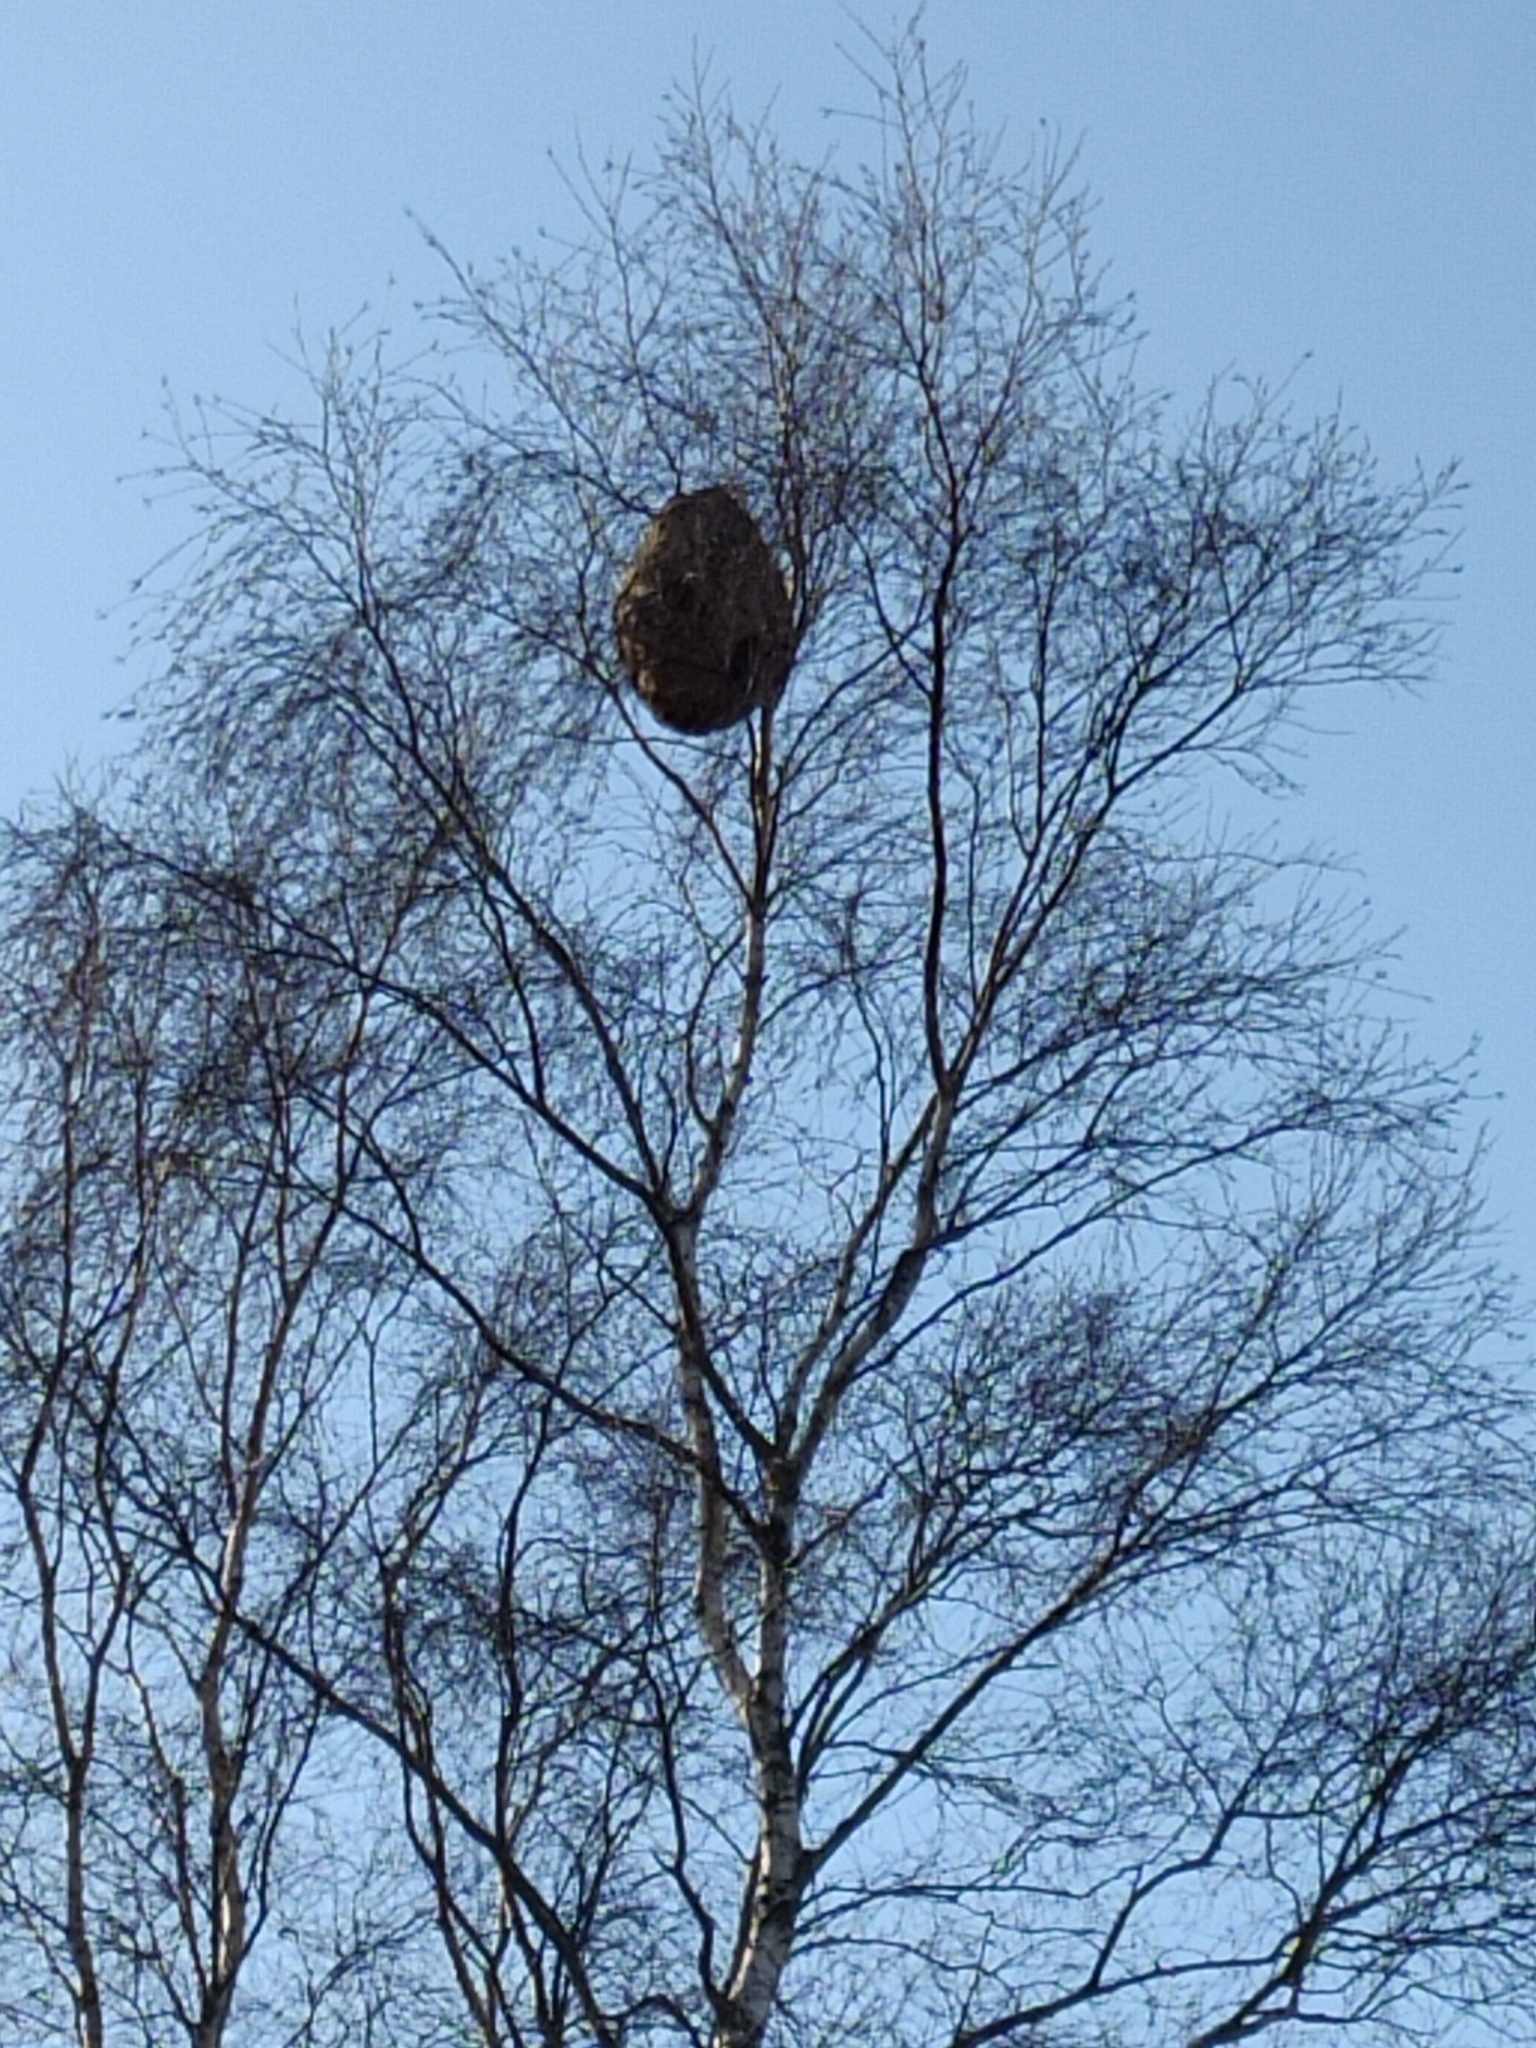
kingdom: Animalia
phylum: Arthropoda
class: Insecta
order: Hymenoptera
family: Vespidae
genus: Vespa
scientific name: Vespa velutina
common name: Asian hornet
